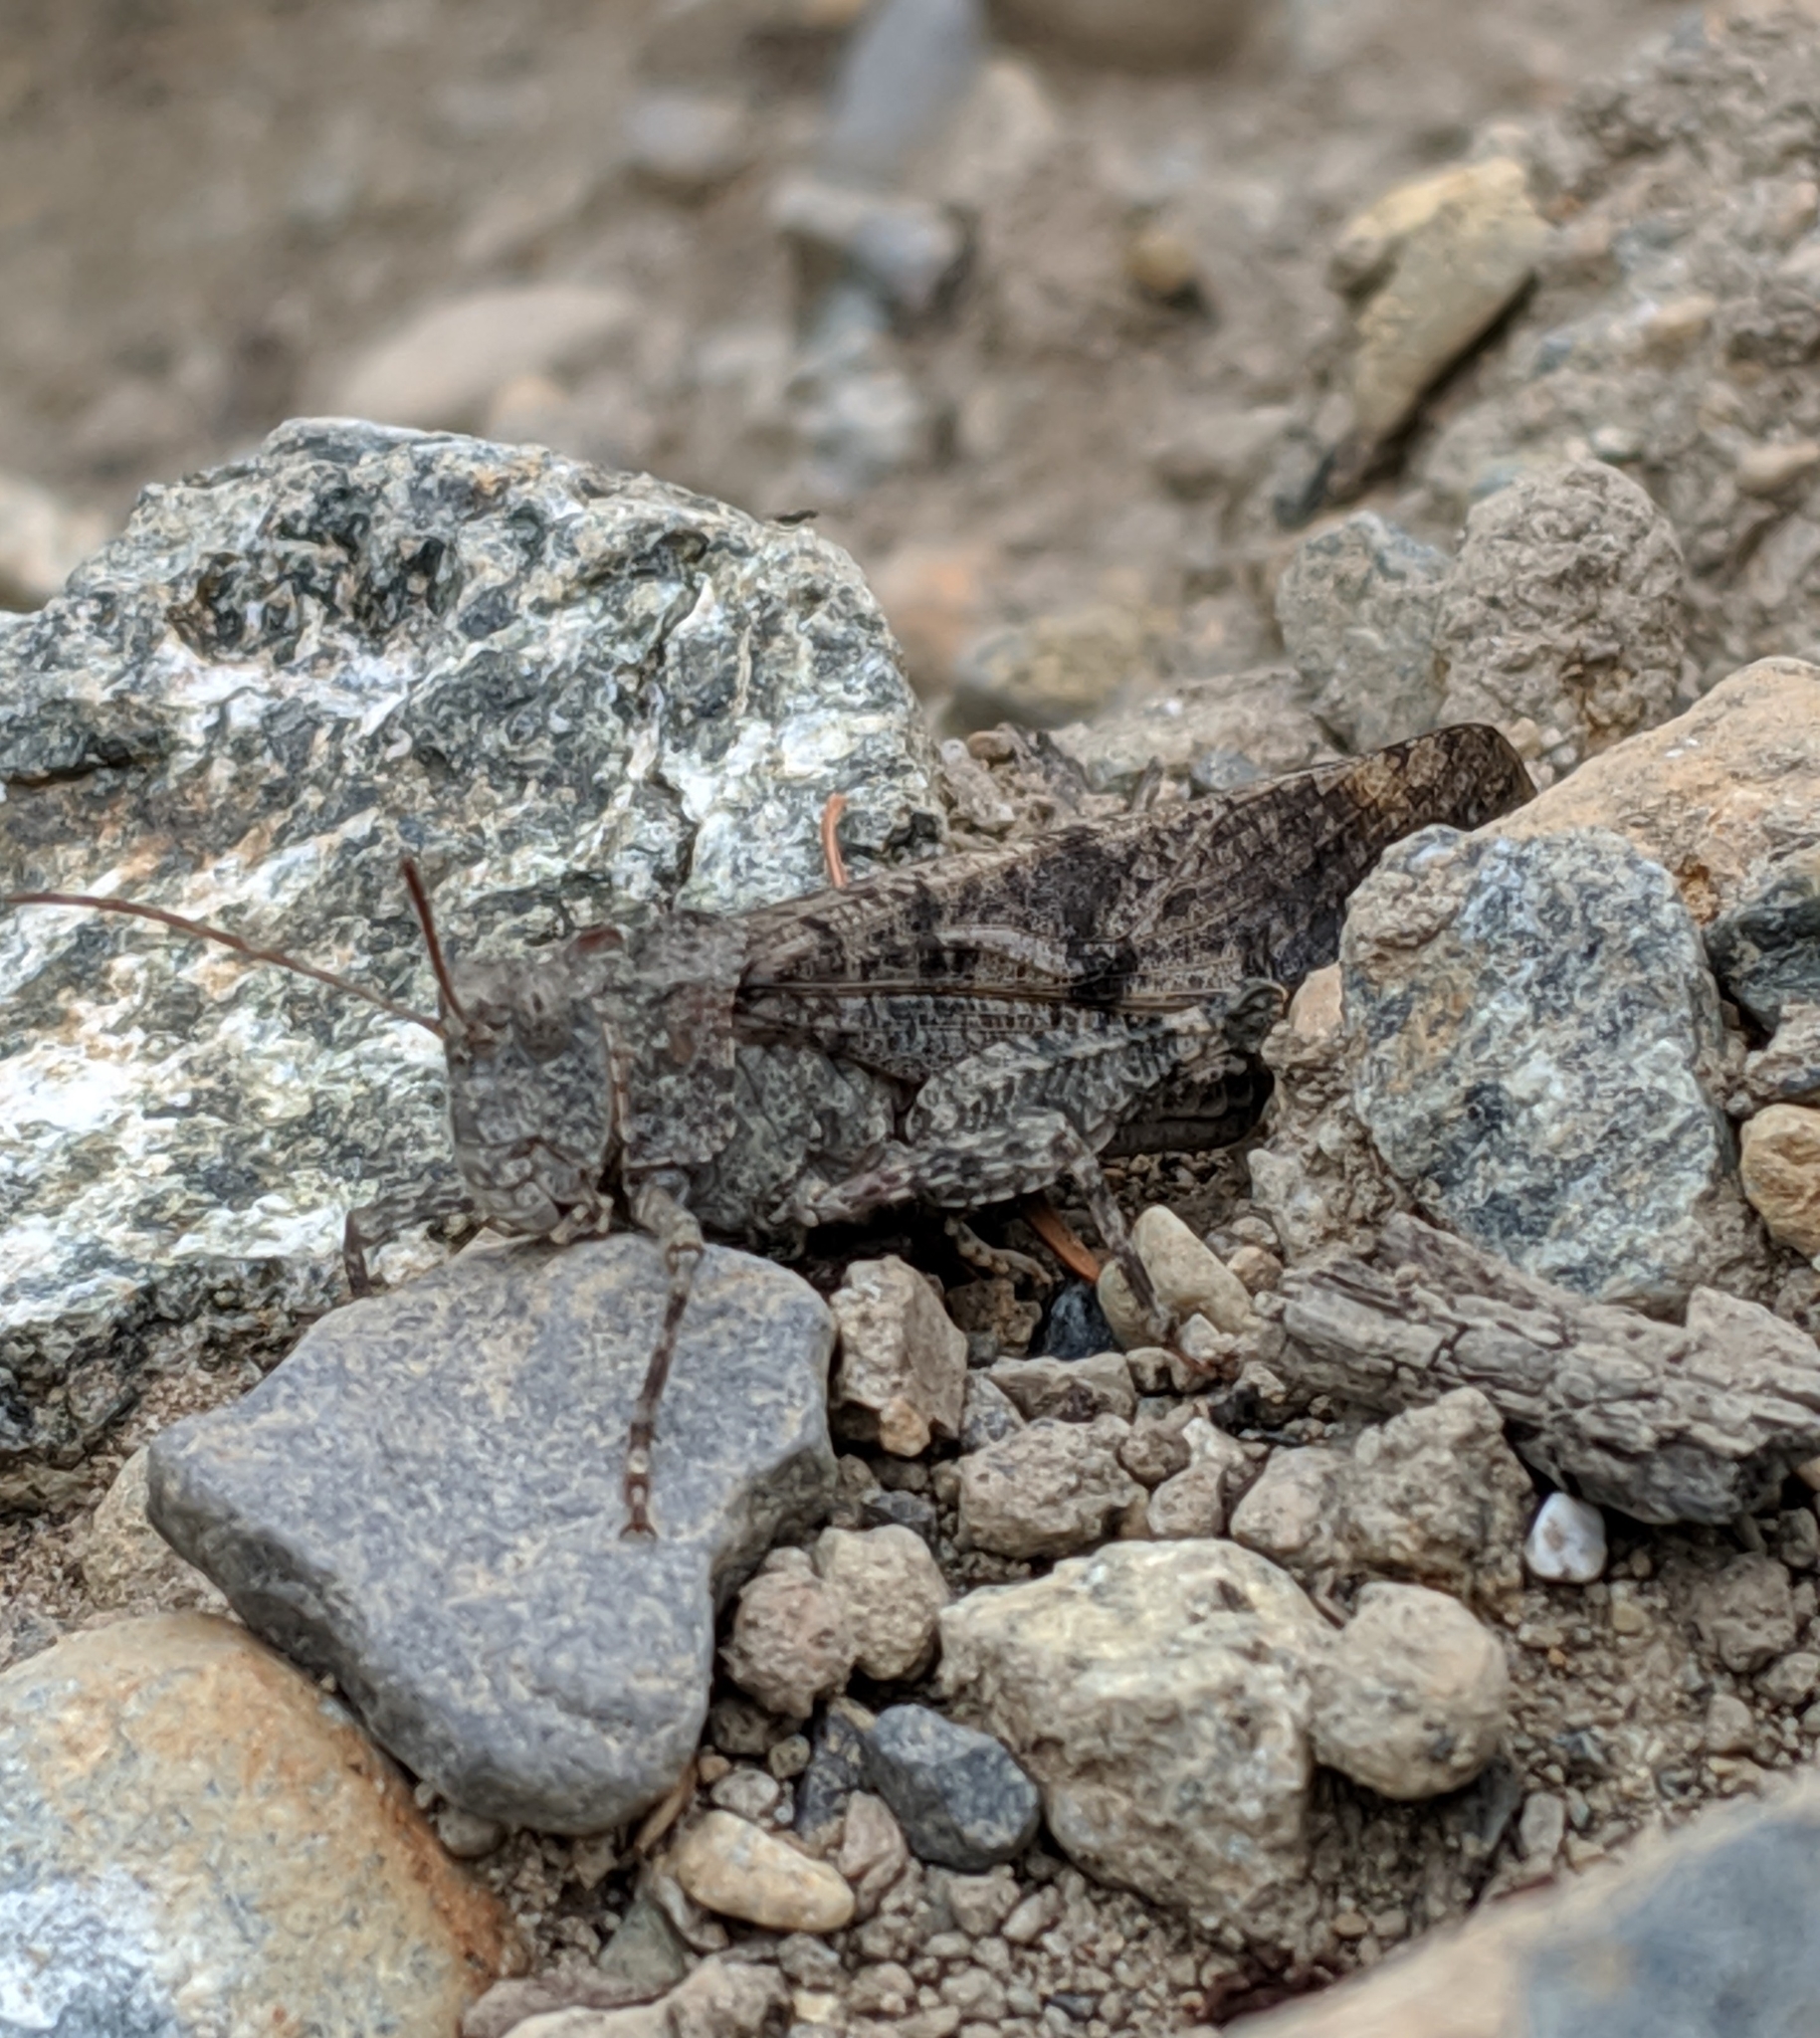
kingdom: Animalia
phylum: Arthropoda
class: Insecta
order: Orthoptera
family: Acrididae
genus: Dissosteira
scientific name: Dissosteira carolina
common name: Carolina grasshopper
